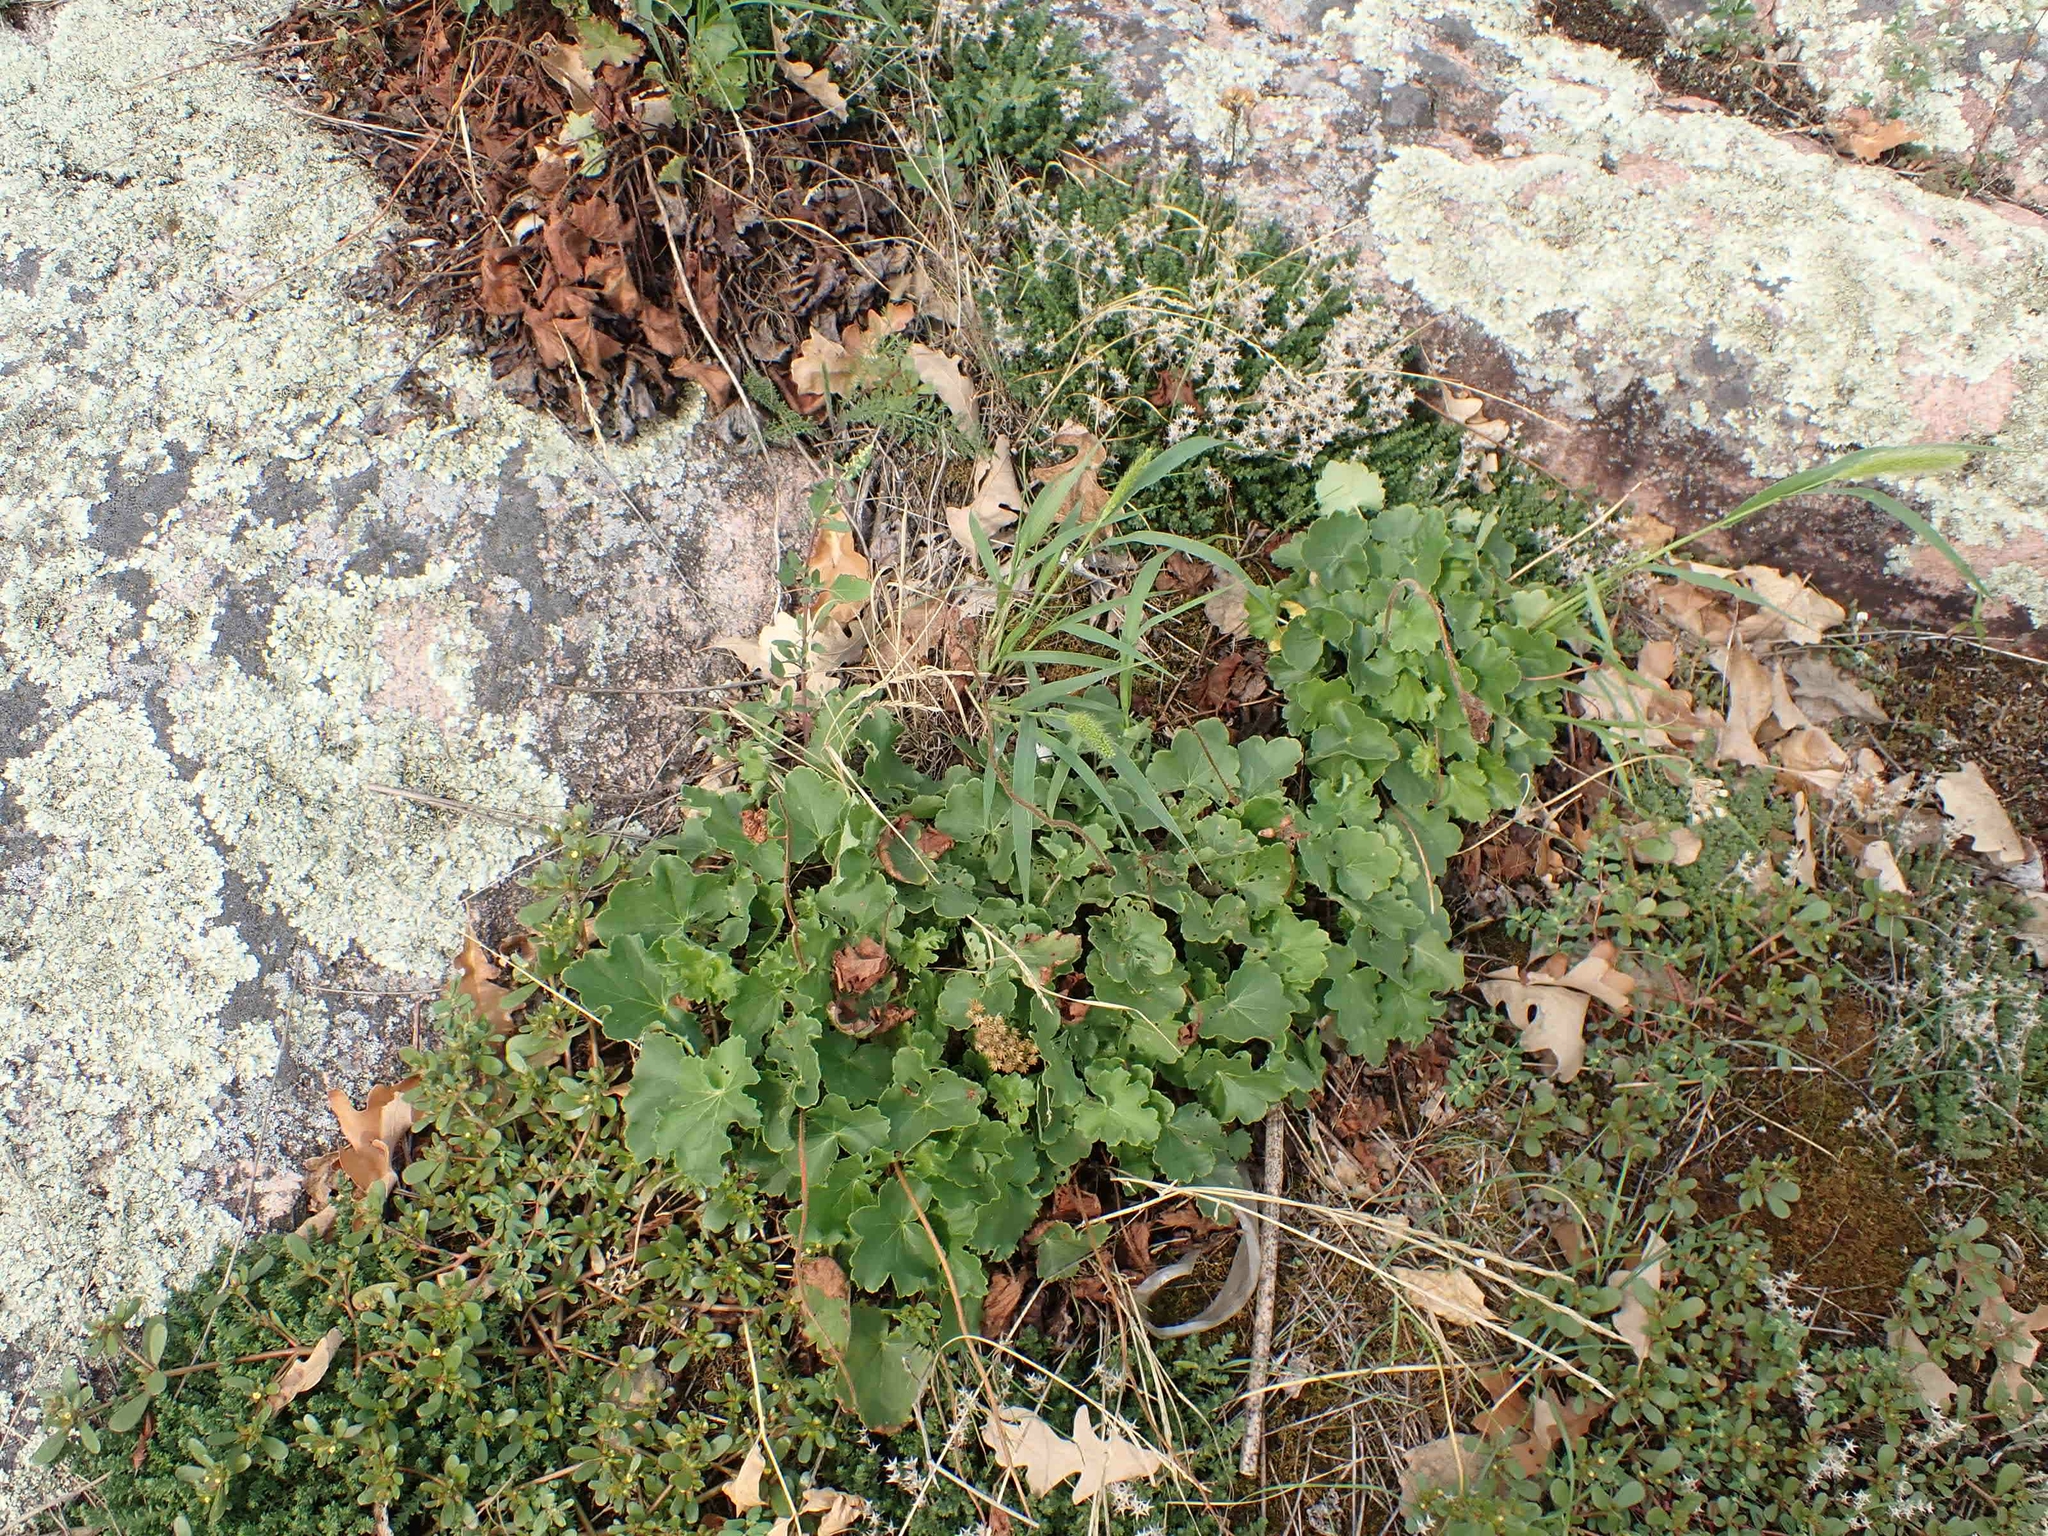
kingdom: Plantae
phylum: Tracheophyta
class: Magnoliopsida
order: Saxifragales
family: Saxifragaceae
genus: Heuchera
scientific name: Heuchera richardsonii
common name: Richardson's alumroot
